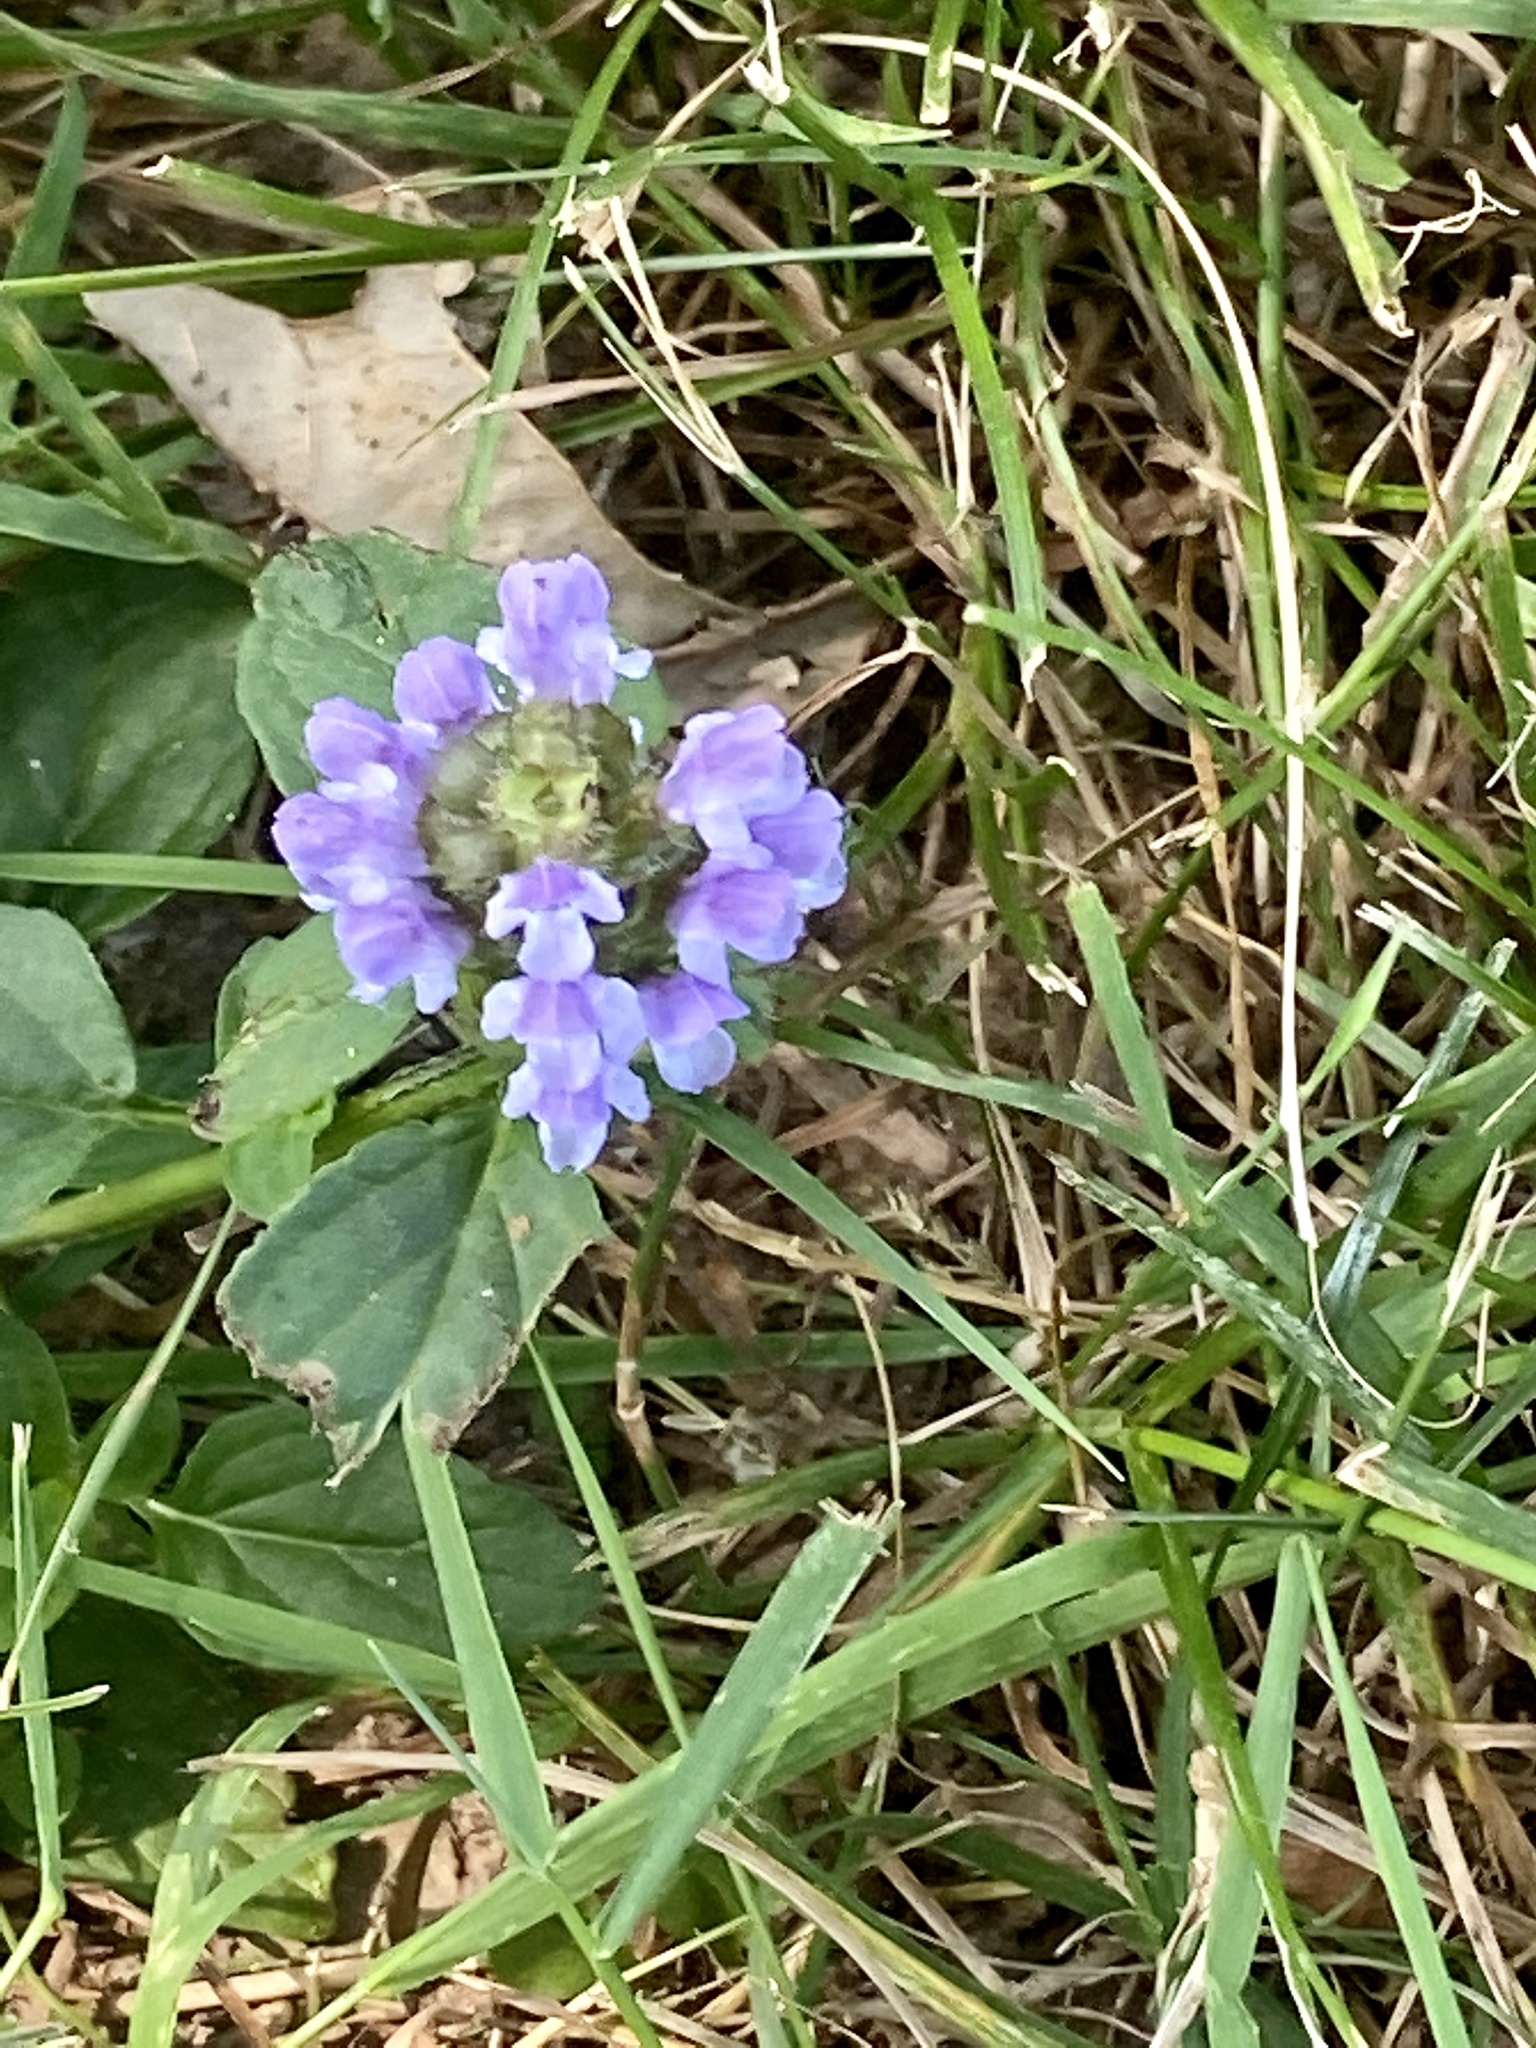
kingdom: Plantae
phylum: Tracheophyta
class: Magnoliopsida
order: Lamiales
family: Lamiaceae
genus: Prunella
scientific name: Prunella vulgaris
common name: Heal-all
